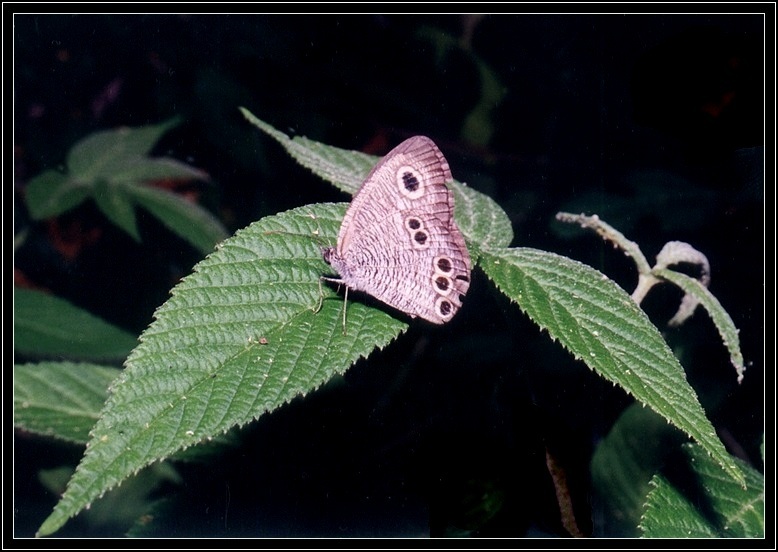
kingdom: Animalia
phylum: Arthropoda
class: Insecta
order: Lepidoptera
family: Nymphalidae
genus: Ypthima
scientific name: Ypthima argus
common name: Common fivering
